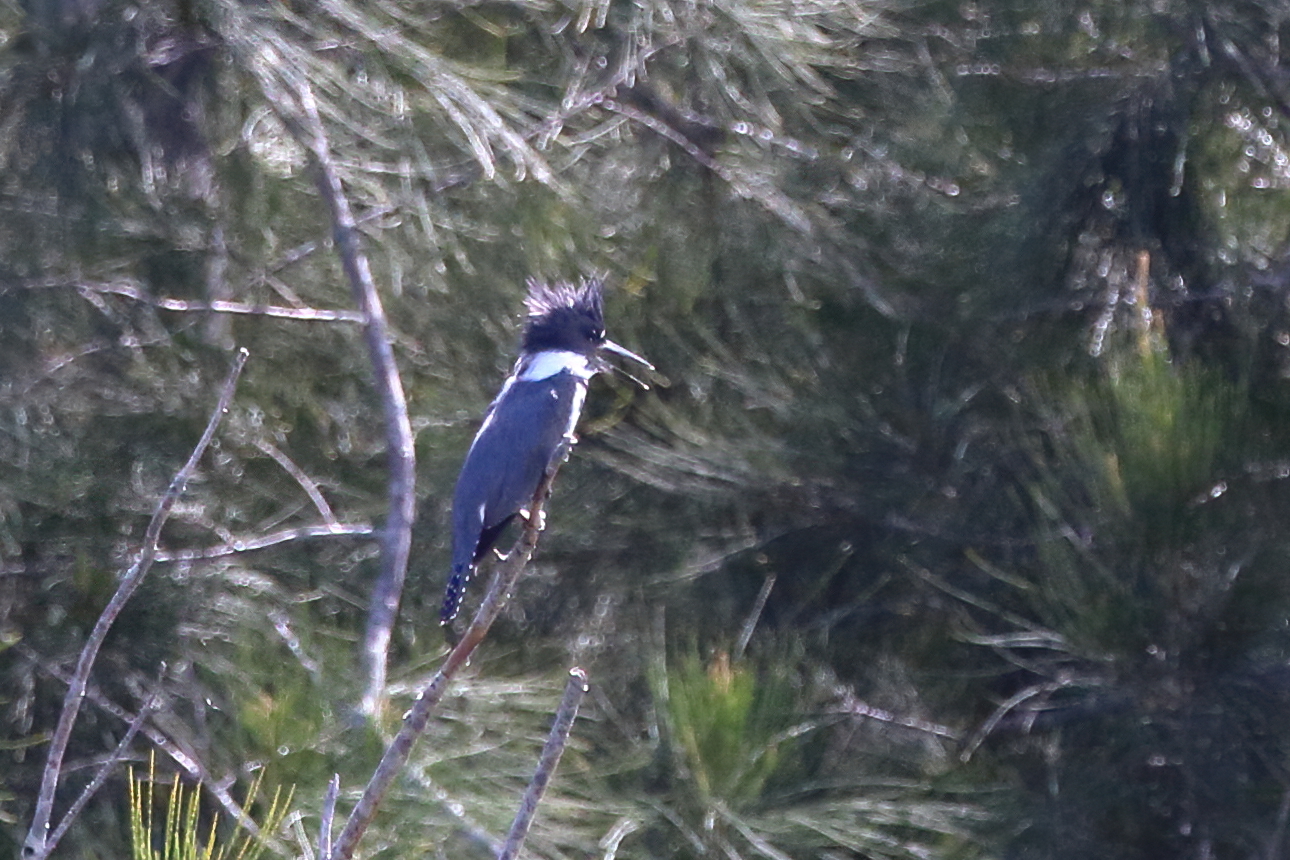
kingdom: Animalia
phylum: Chordata
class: Aves
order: Coraciiformes
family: Alcedinidae
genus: Megaceryle
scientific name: Megaceryle alcyon
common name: Belted kingfisher
